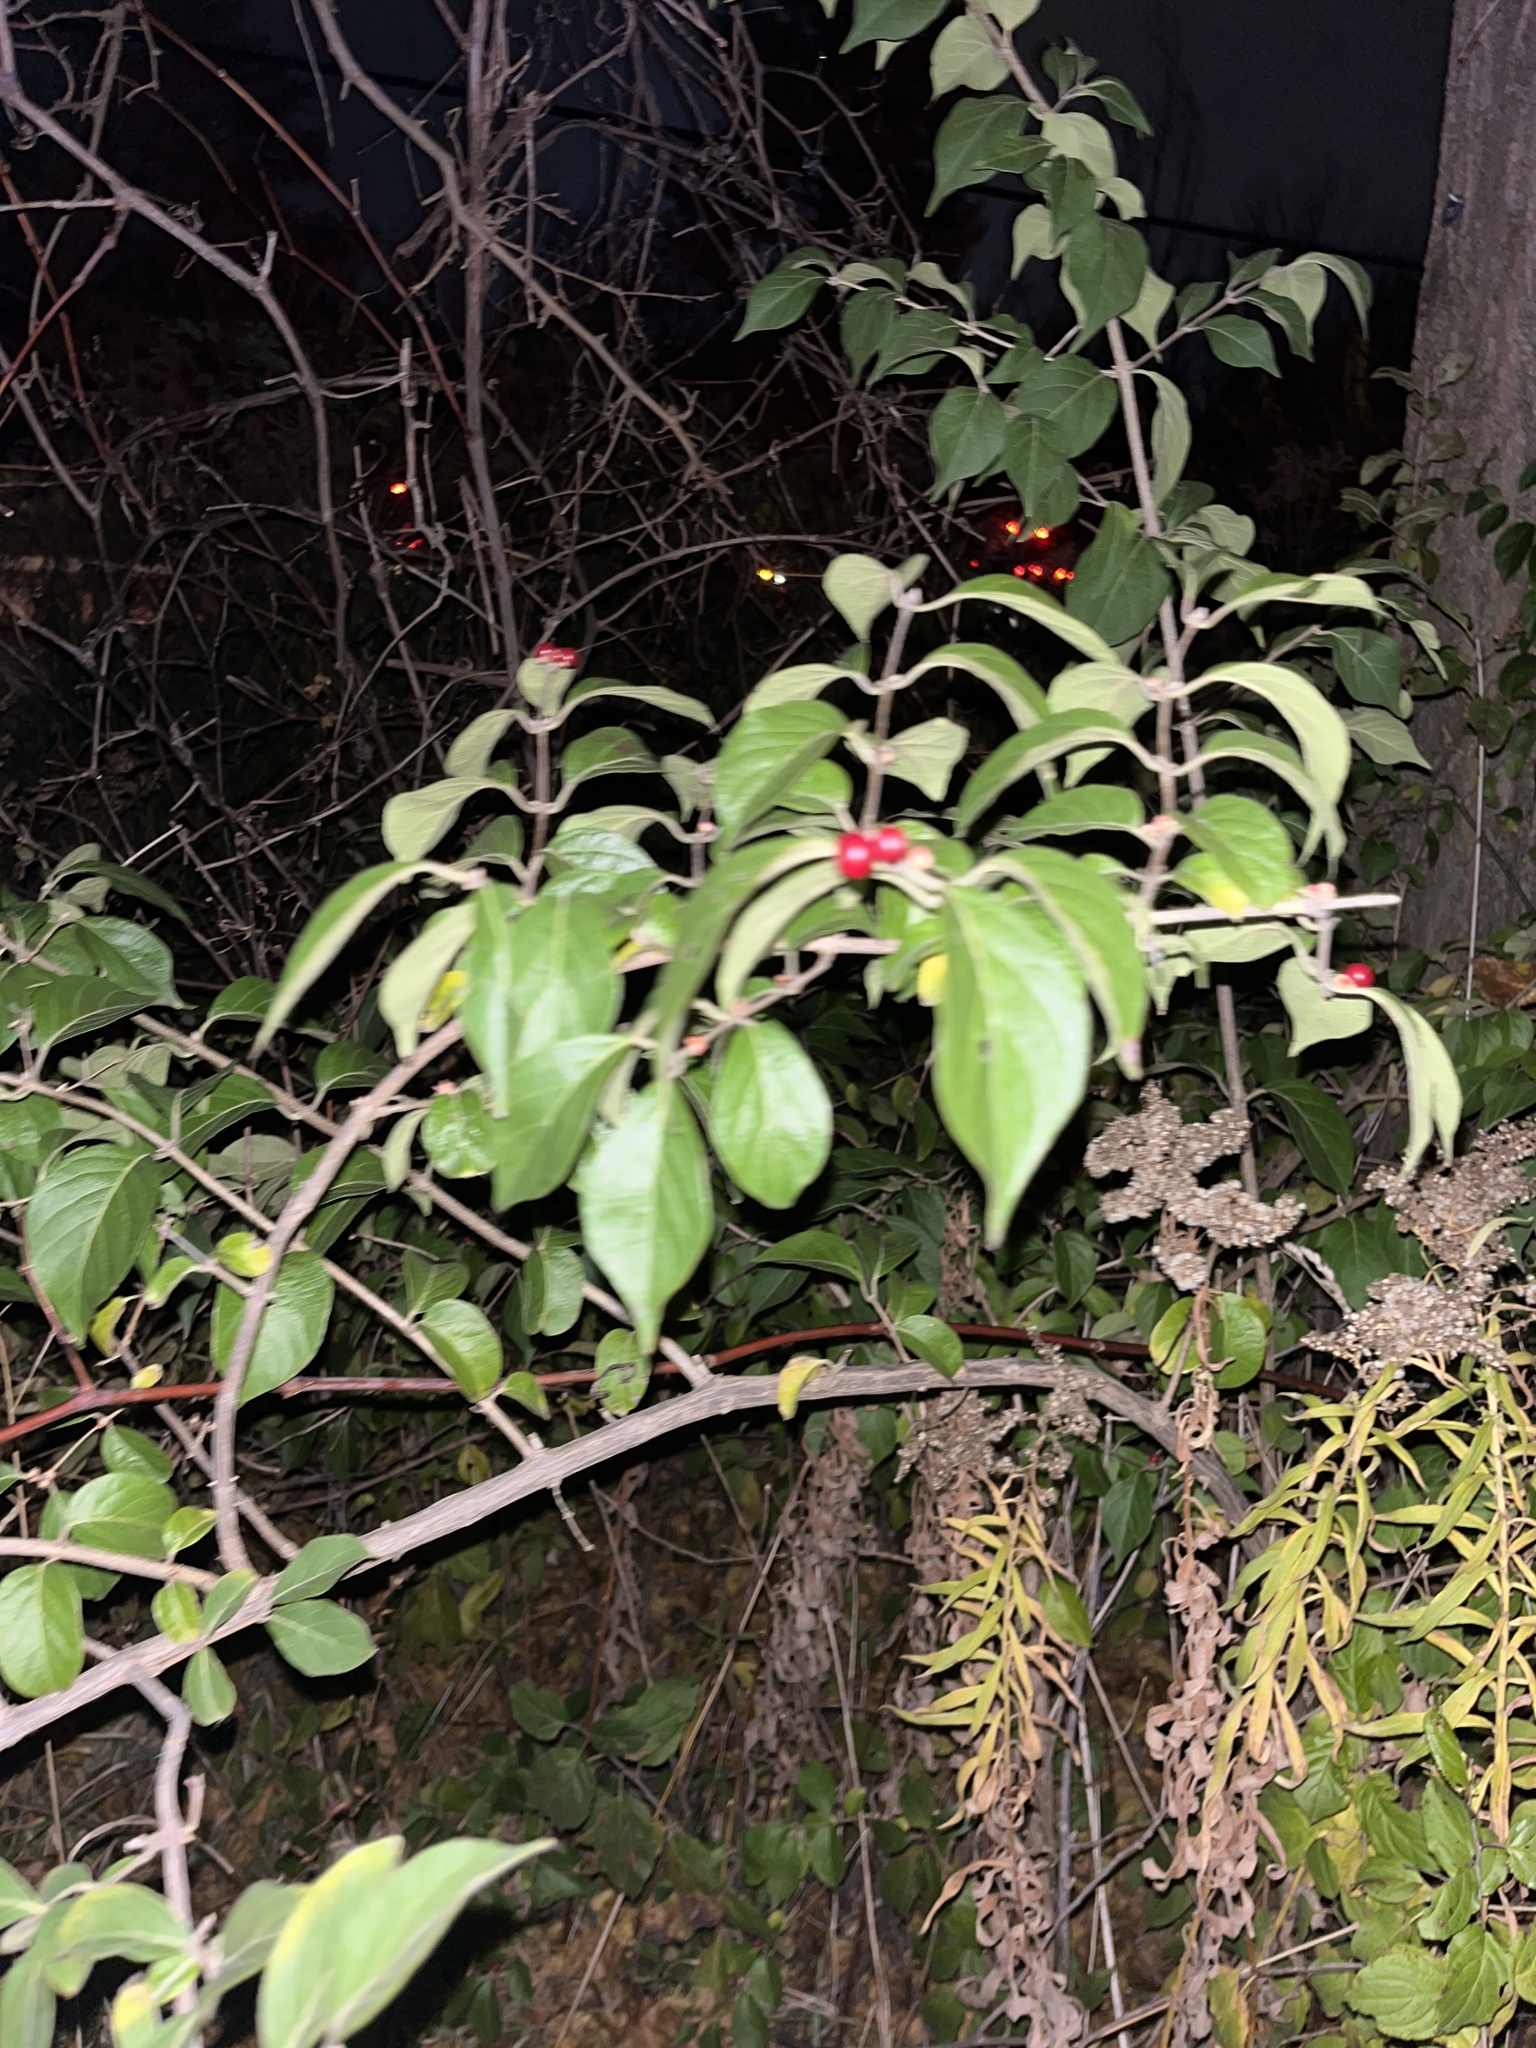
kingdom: Plantae
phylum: Tracheophyta
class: Magnoliopsida
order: Dipsacales
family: Caprifoliaceae
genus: Lonicera
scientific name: Lonicera maackii
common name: Amur honeysuckle
